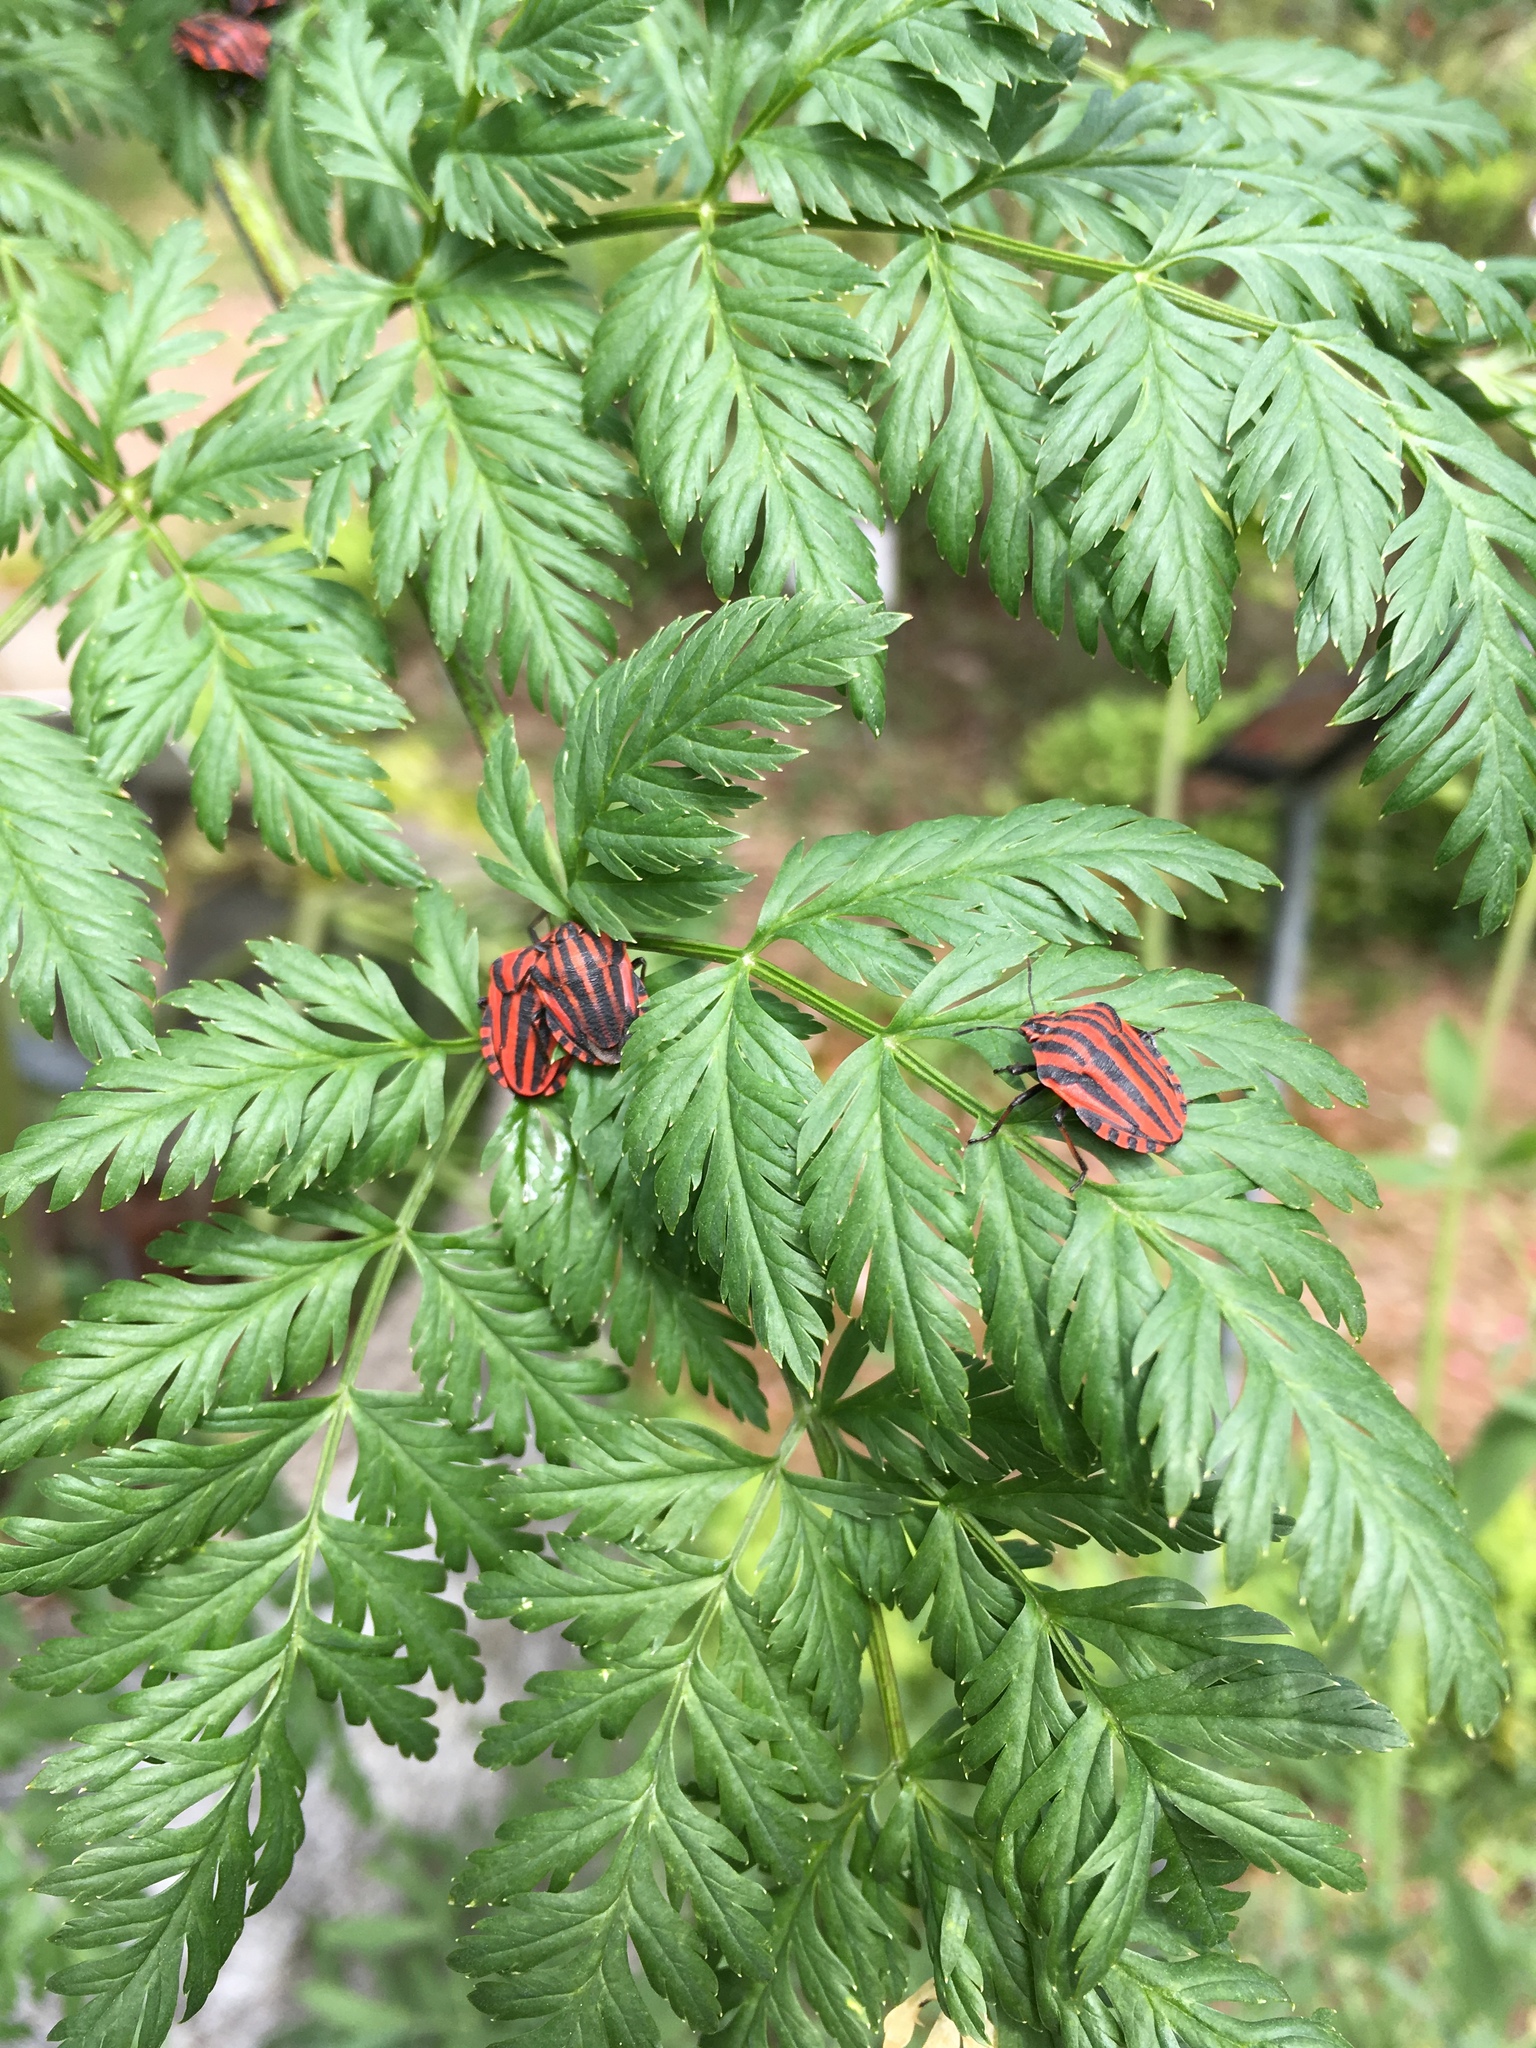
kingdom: Animalia
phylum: Arthropoda
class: Insecta
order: Hemiptera
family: Pentatomidae
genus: Graphosoma
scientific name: Graphosoma italicum
